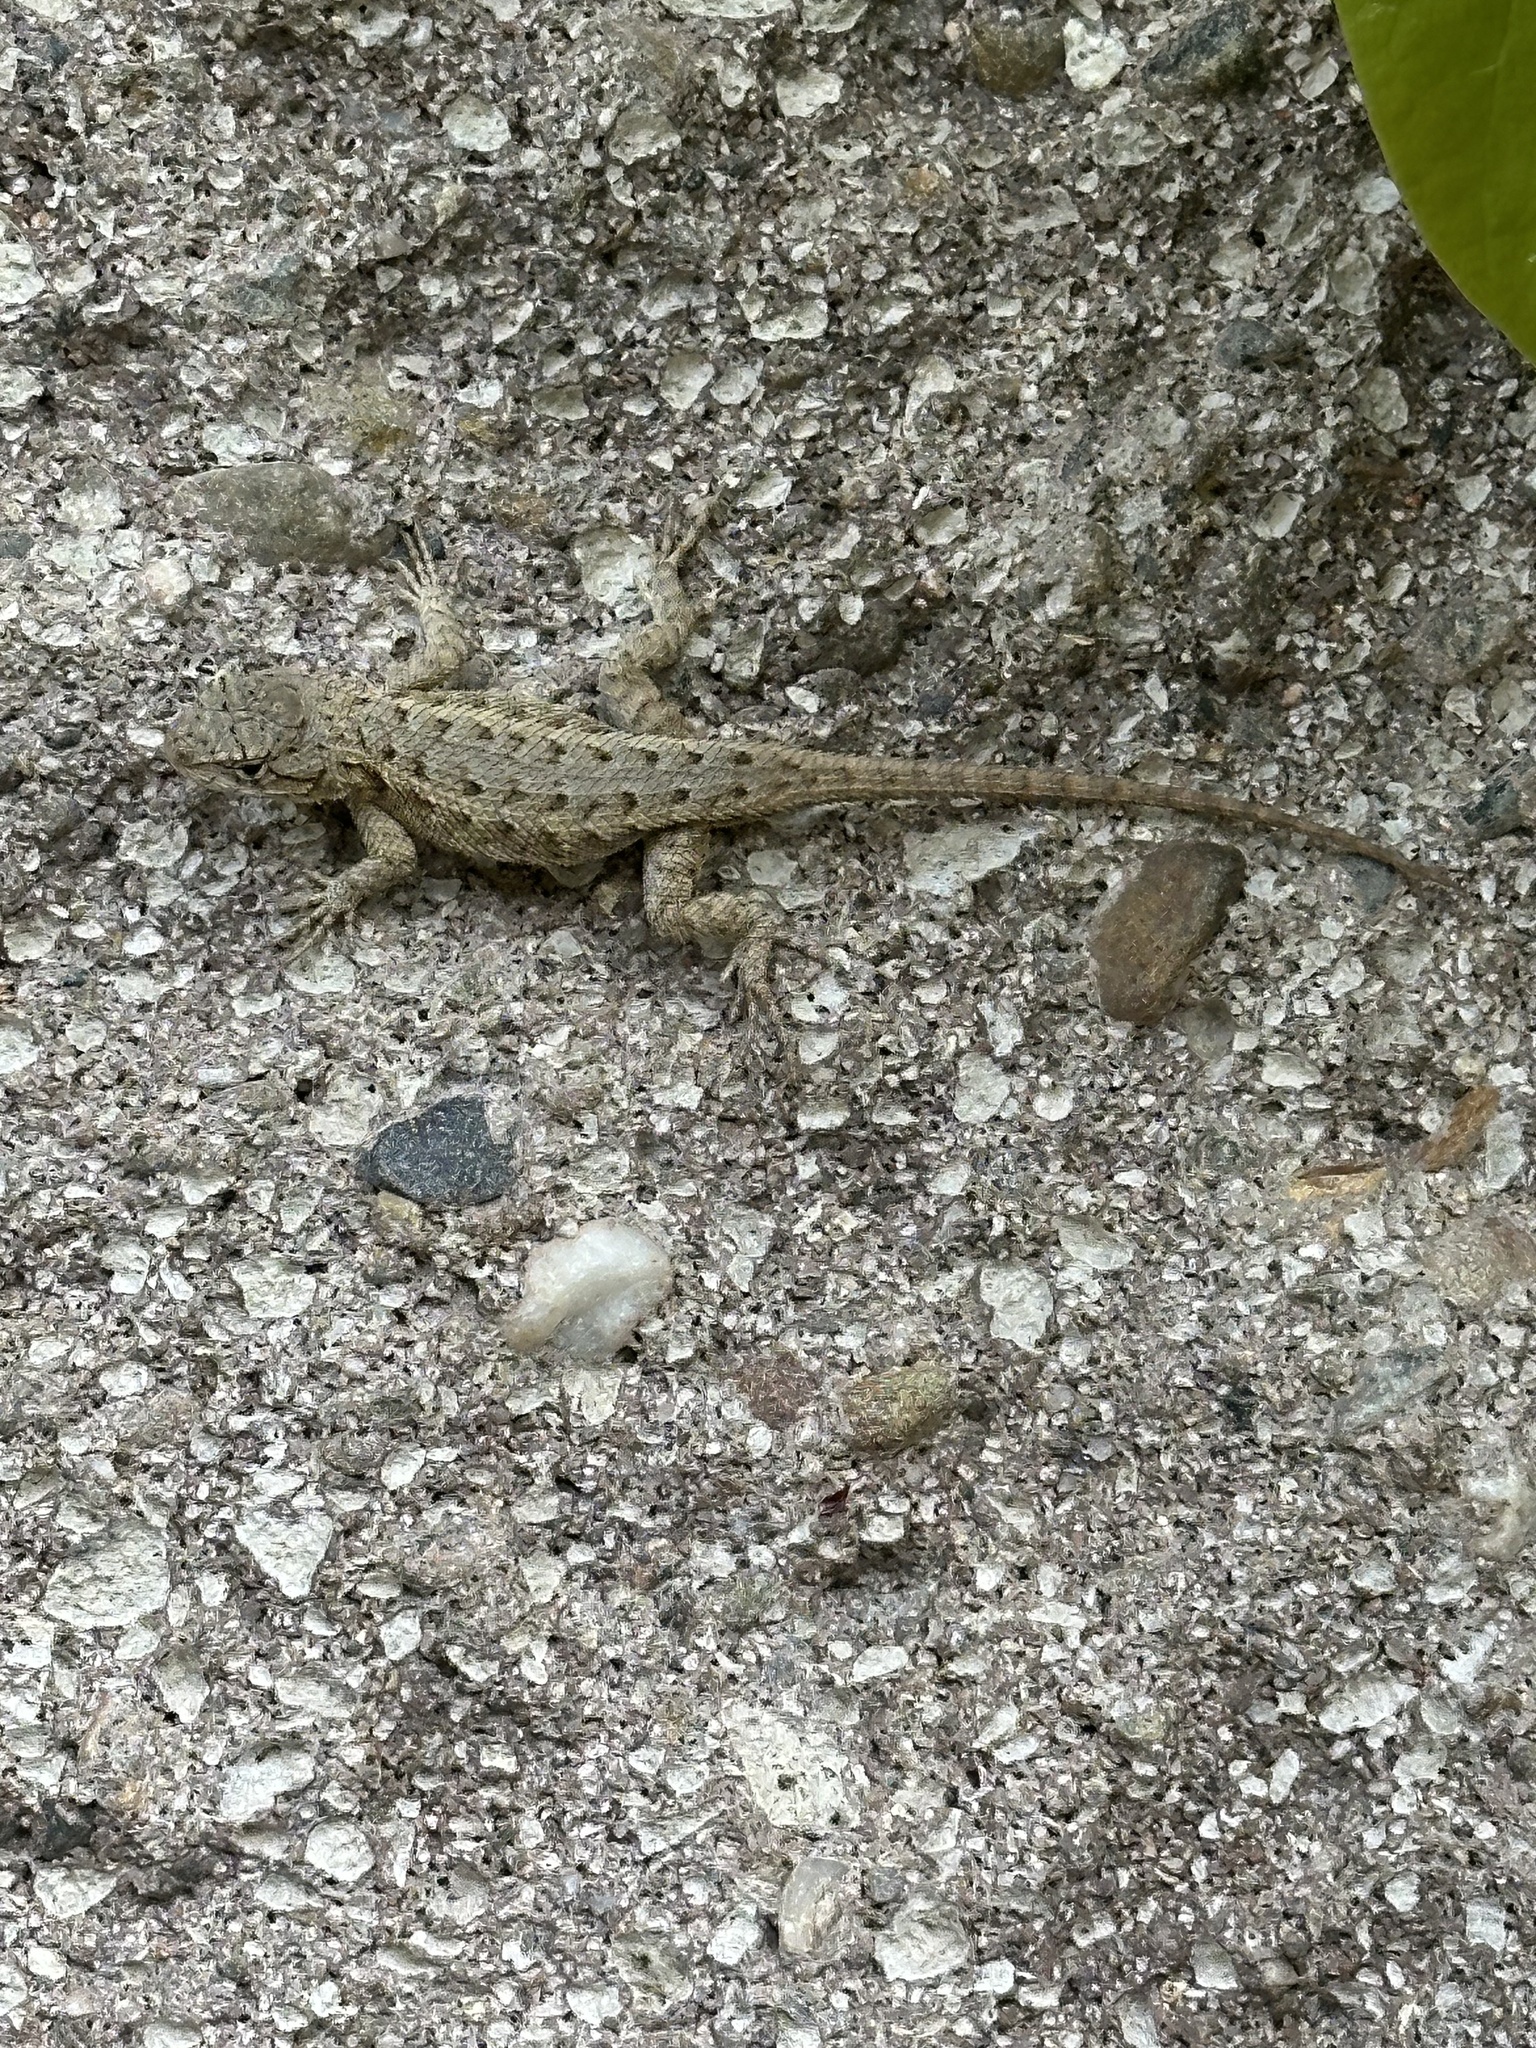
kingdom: Animalia
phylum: Chordata
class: Squamata
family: Phrynosomatidae
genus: Sceloporus
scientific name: Sceloporus occidentalis
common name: Western fence lizard
